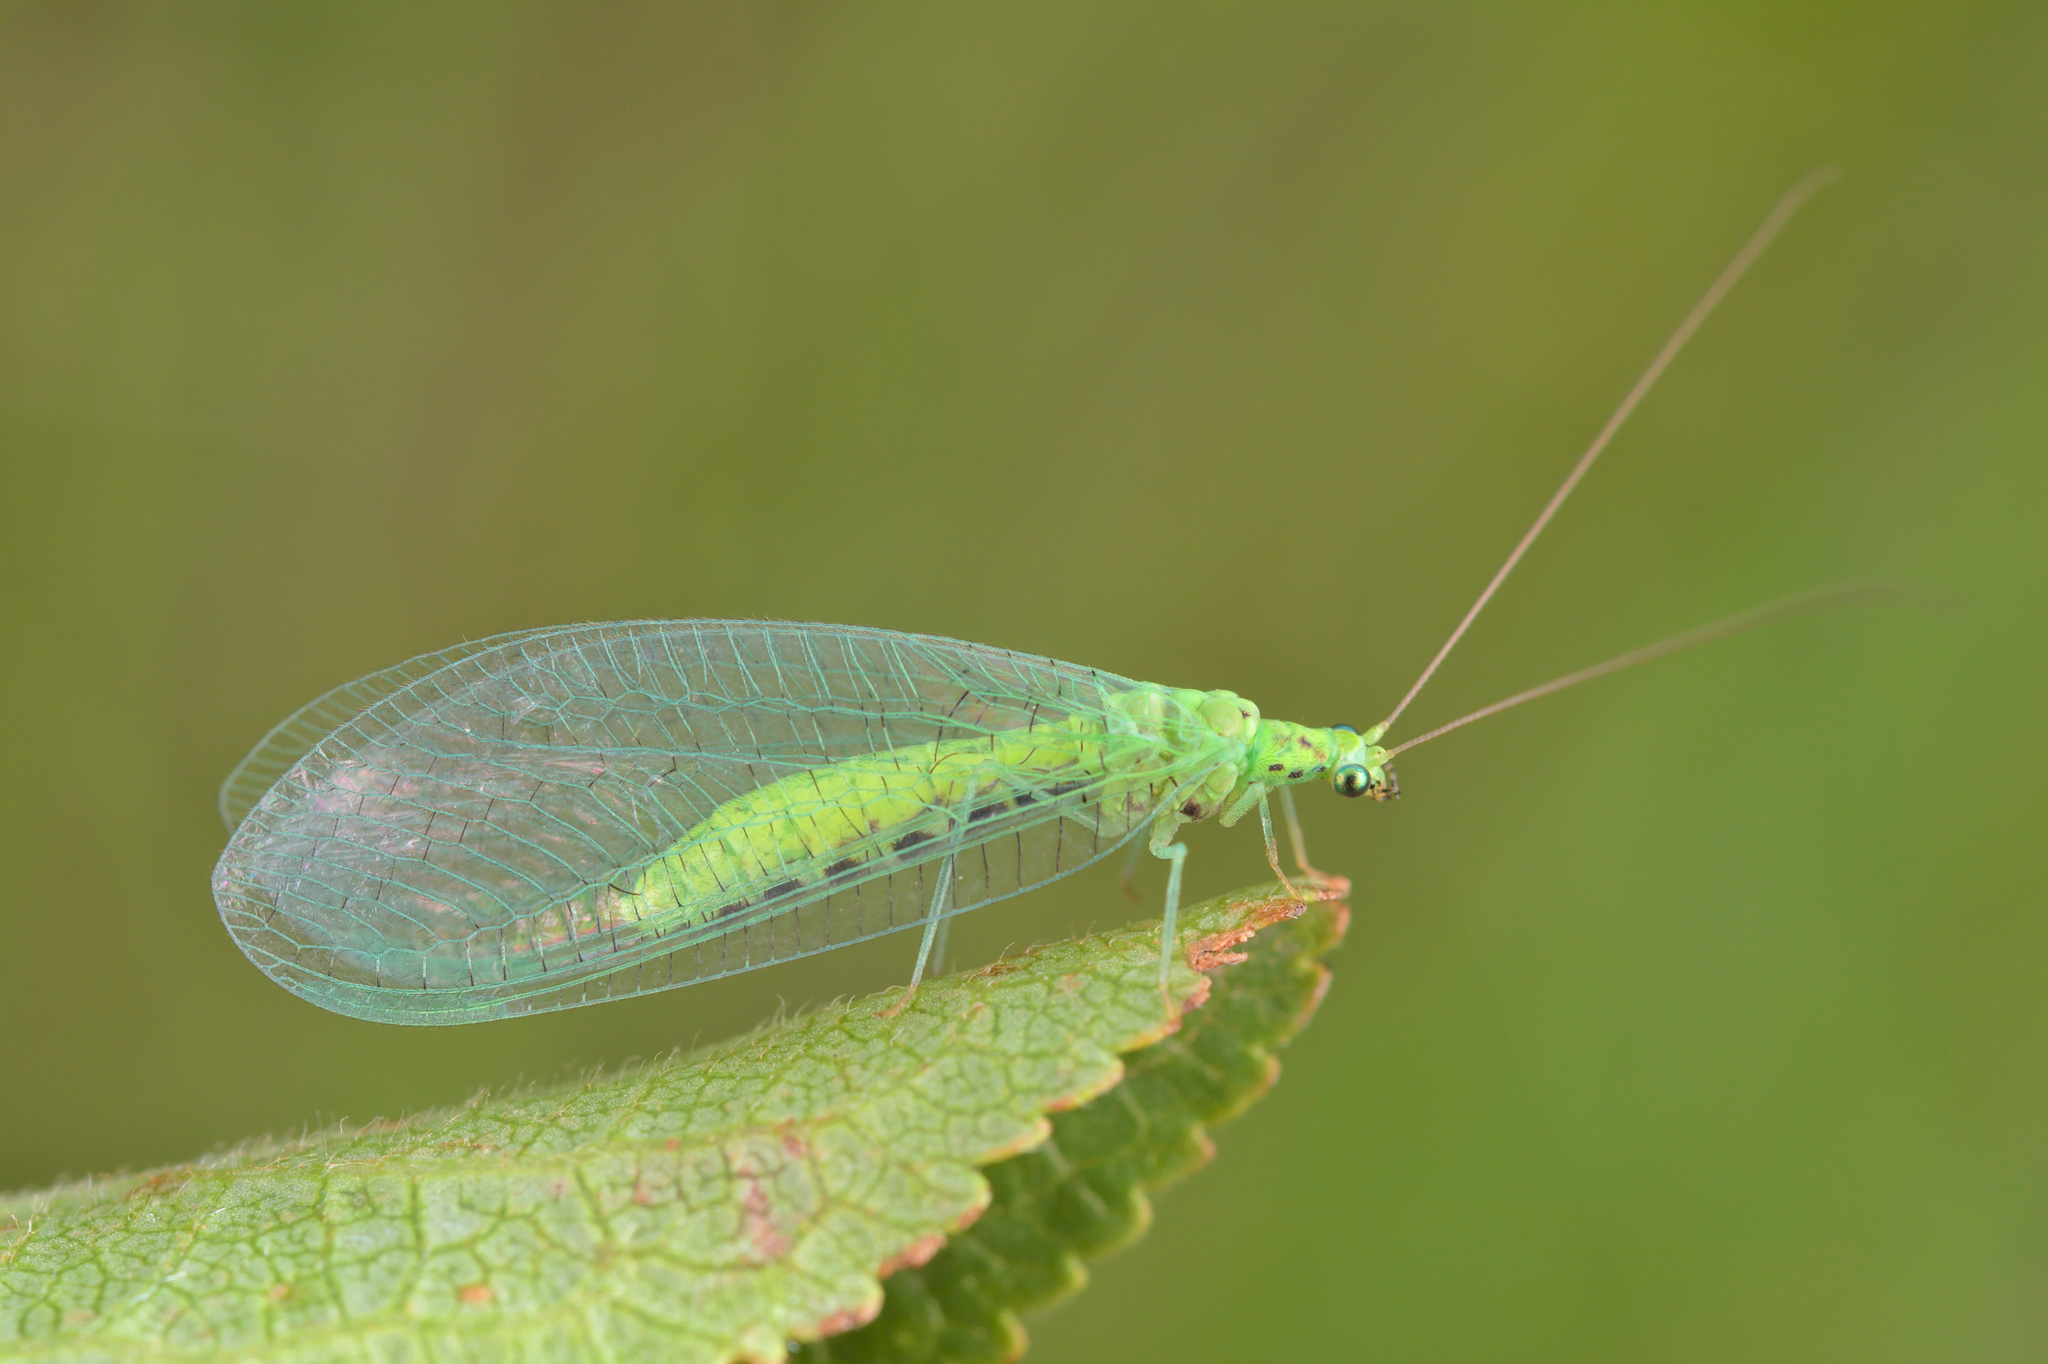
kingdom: Animalia
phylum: Arthropoda
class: Insecta
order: Neuroptera
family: Chrysopidae
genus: Pseudomallada
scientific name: Pseudomallada ventralis
